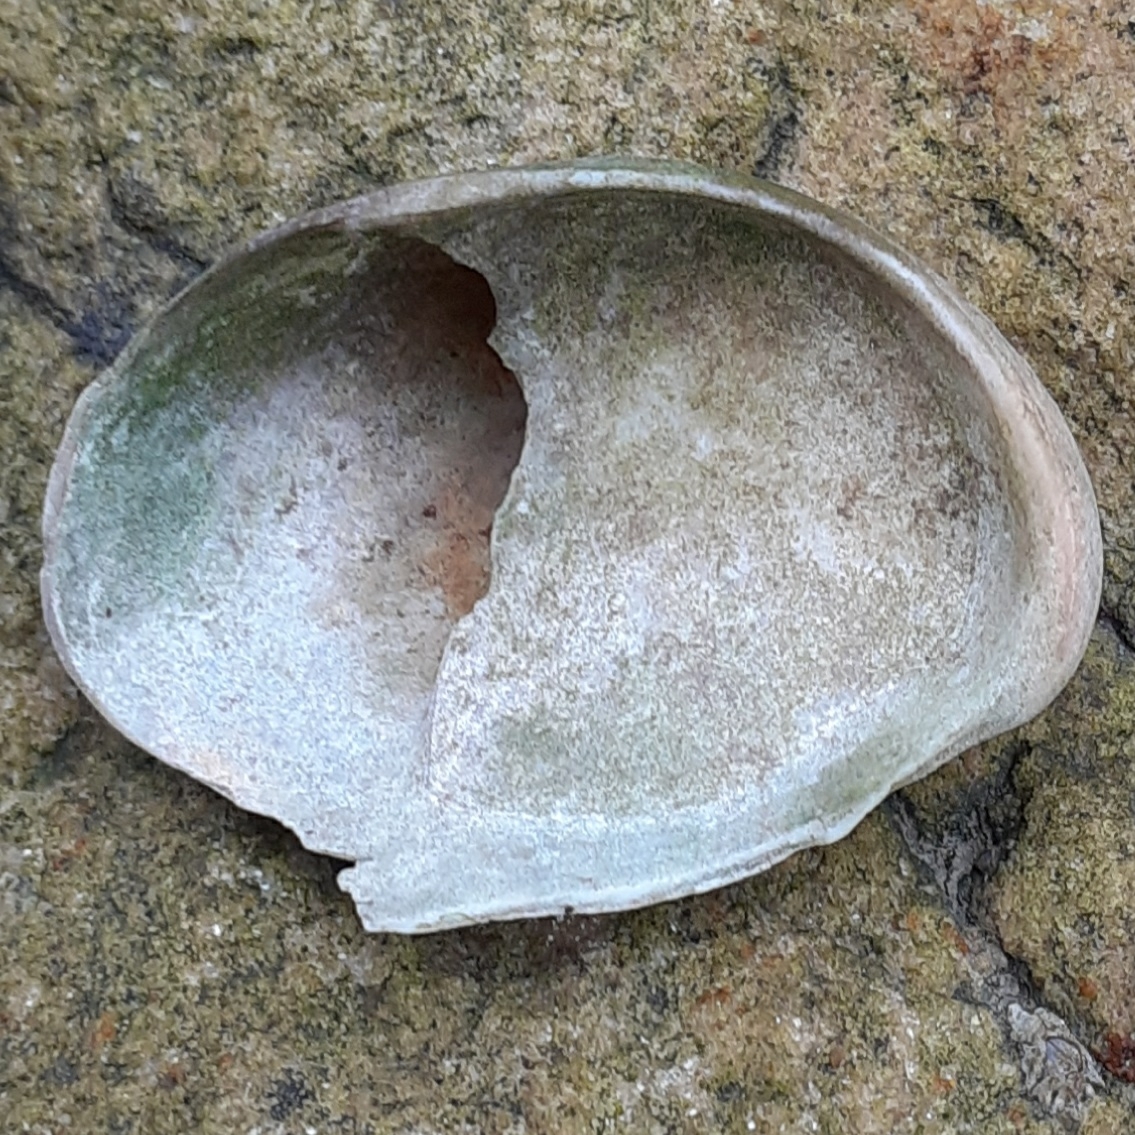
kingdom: Animalia
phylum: Mollusca
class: Gastropoda
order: Littorinimorpha
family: Calyptraeidae
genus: Crepidula
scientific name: Crepidula fornicata
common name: Slipper limpet
